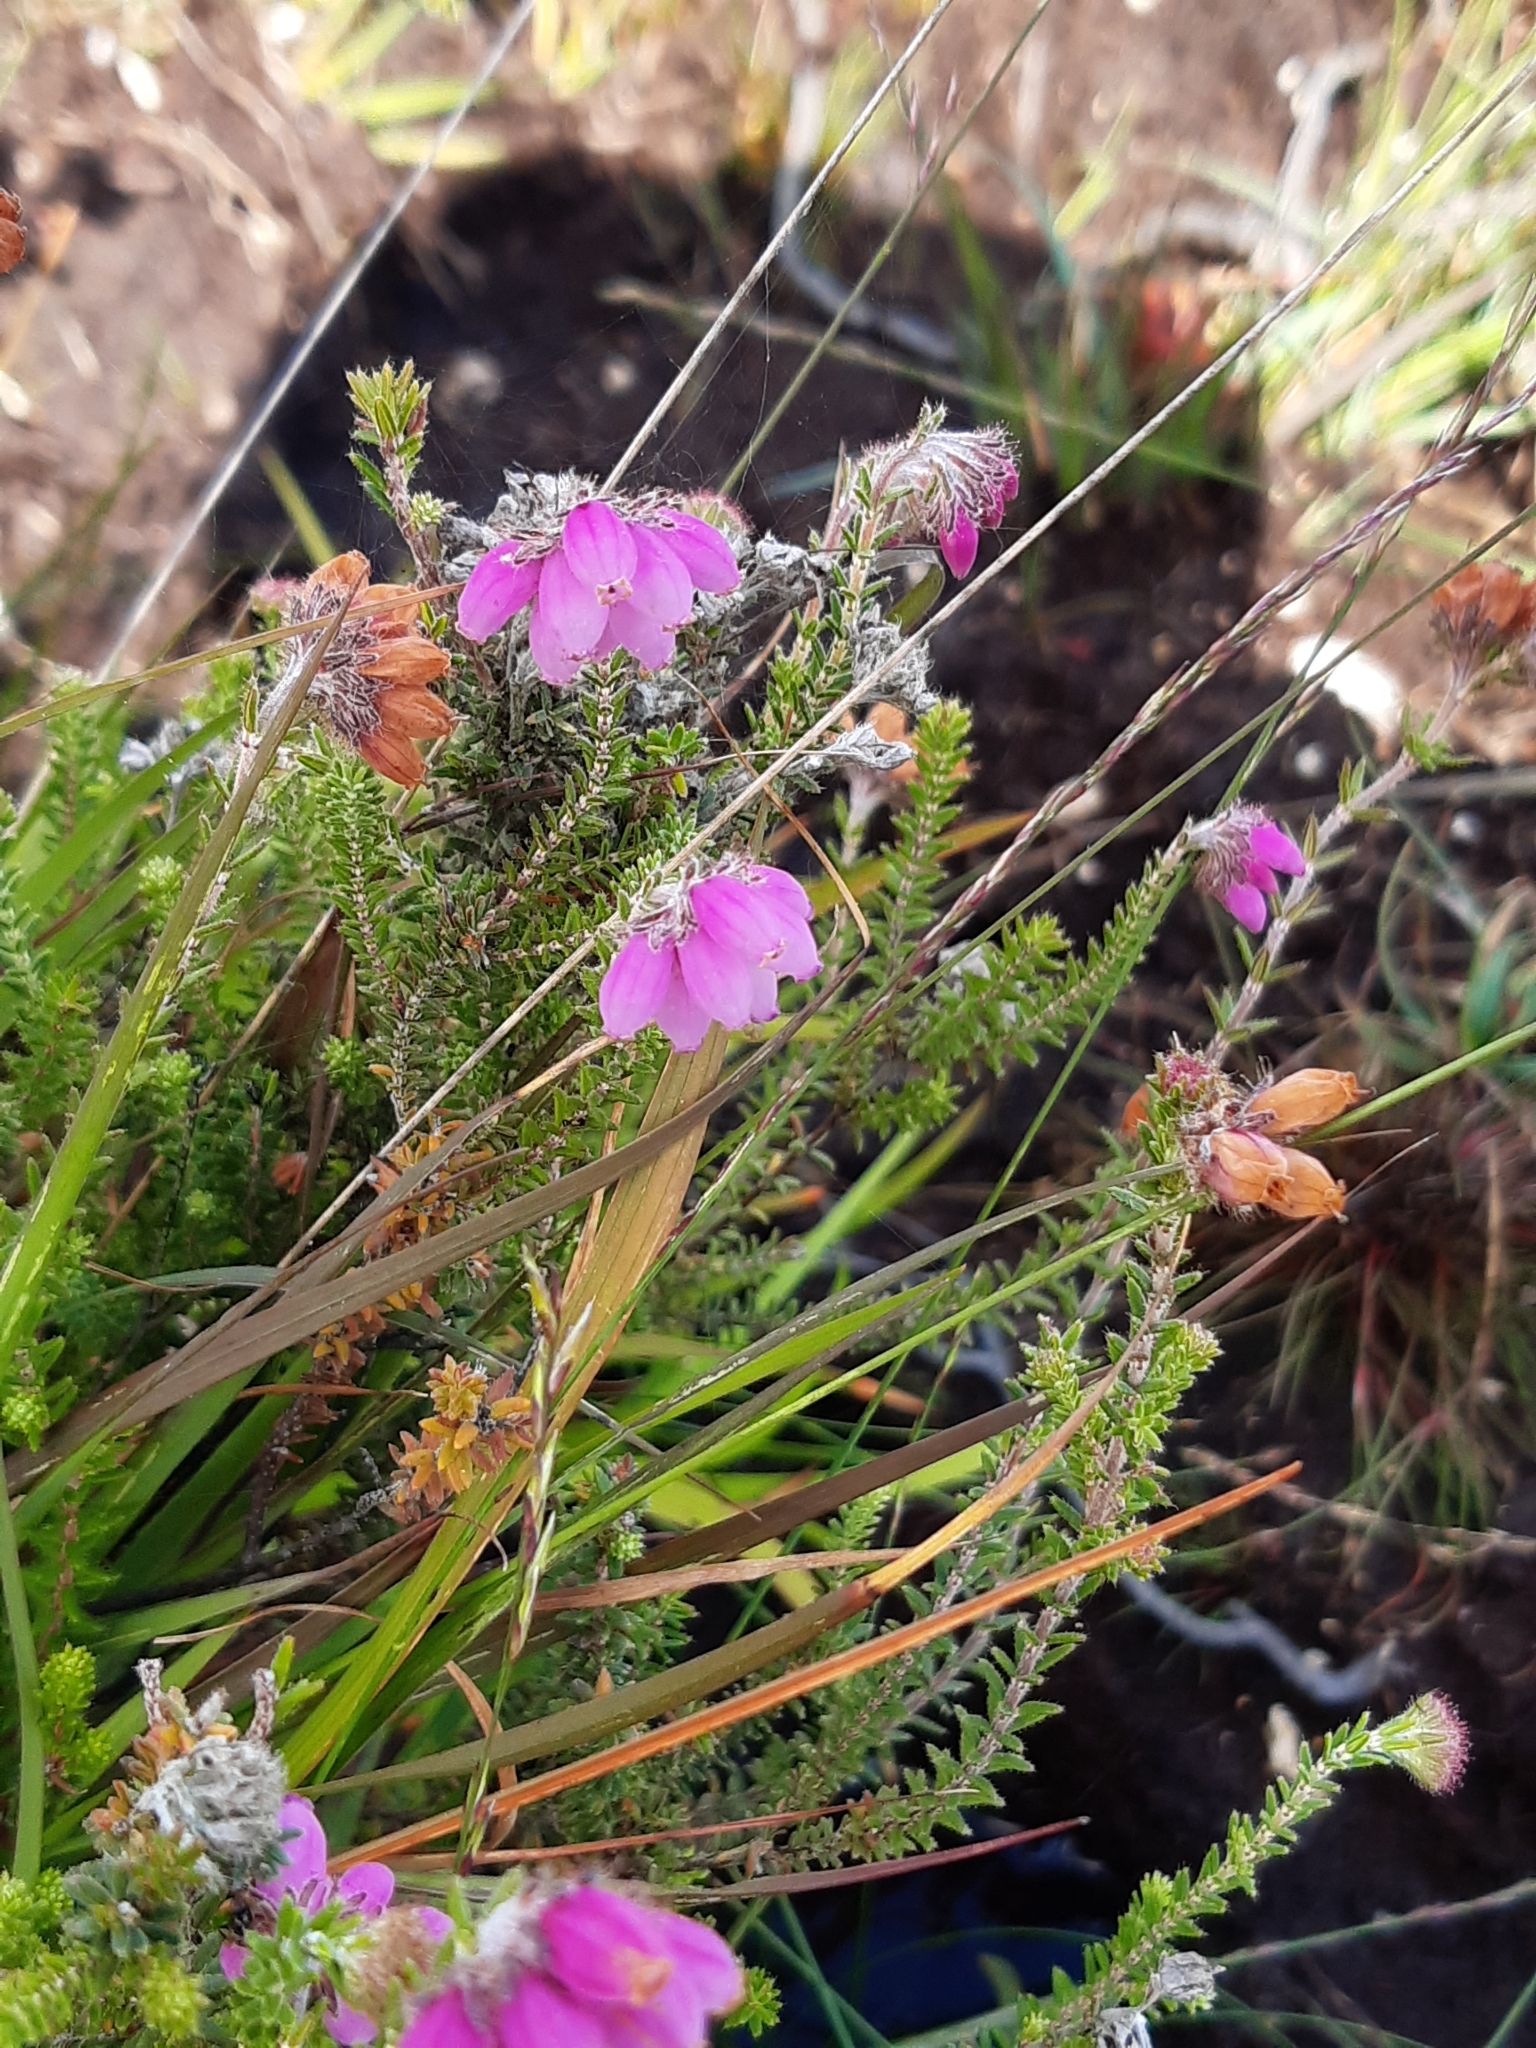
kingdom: Plantae
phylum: Tracheophyta
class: Magnoliopsida
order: Ericales
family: Ericaceae
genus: Erica
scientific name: Erica tetralix
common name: Cross-leaved heath
